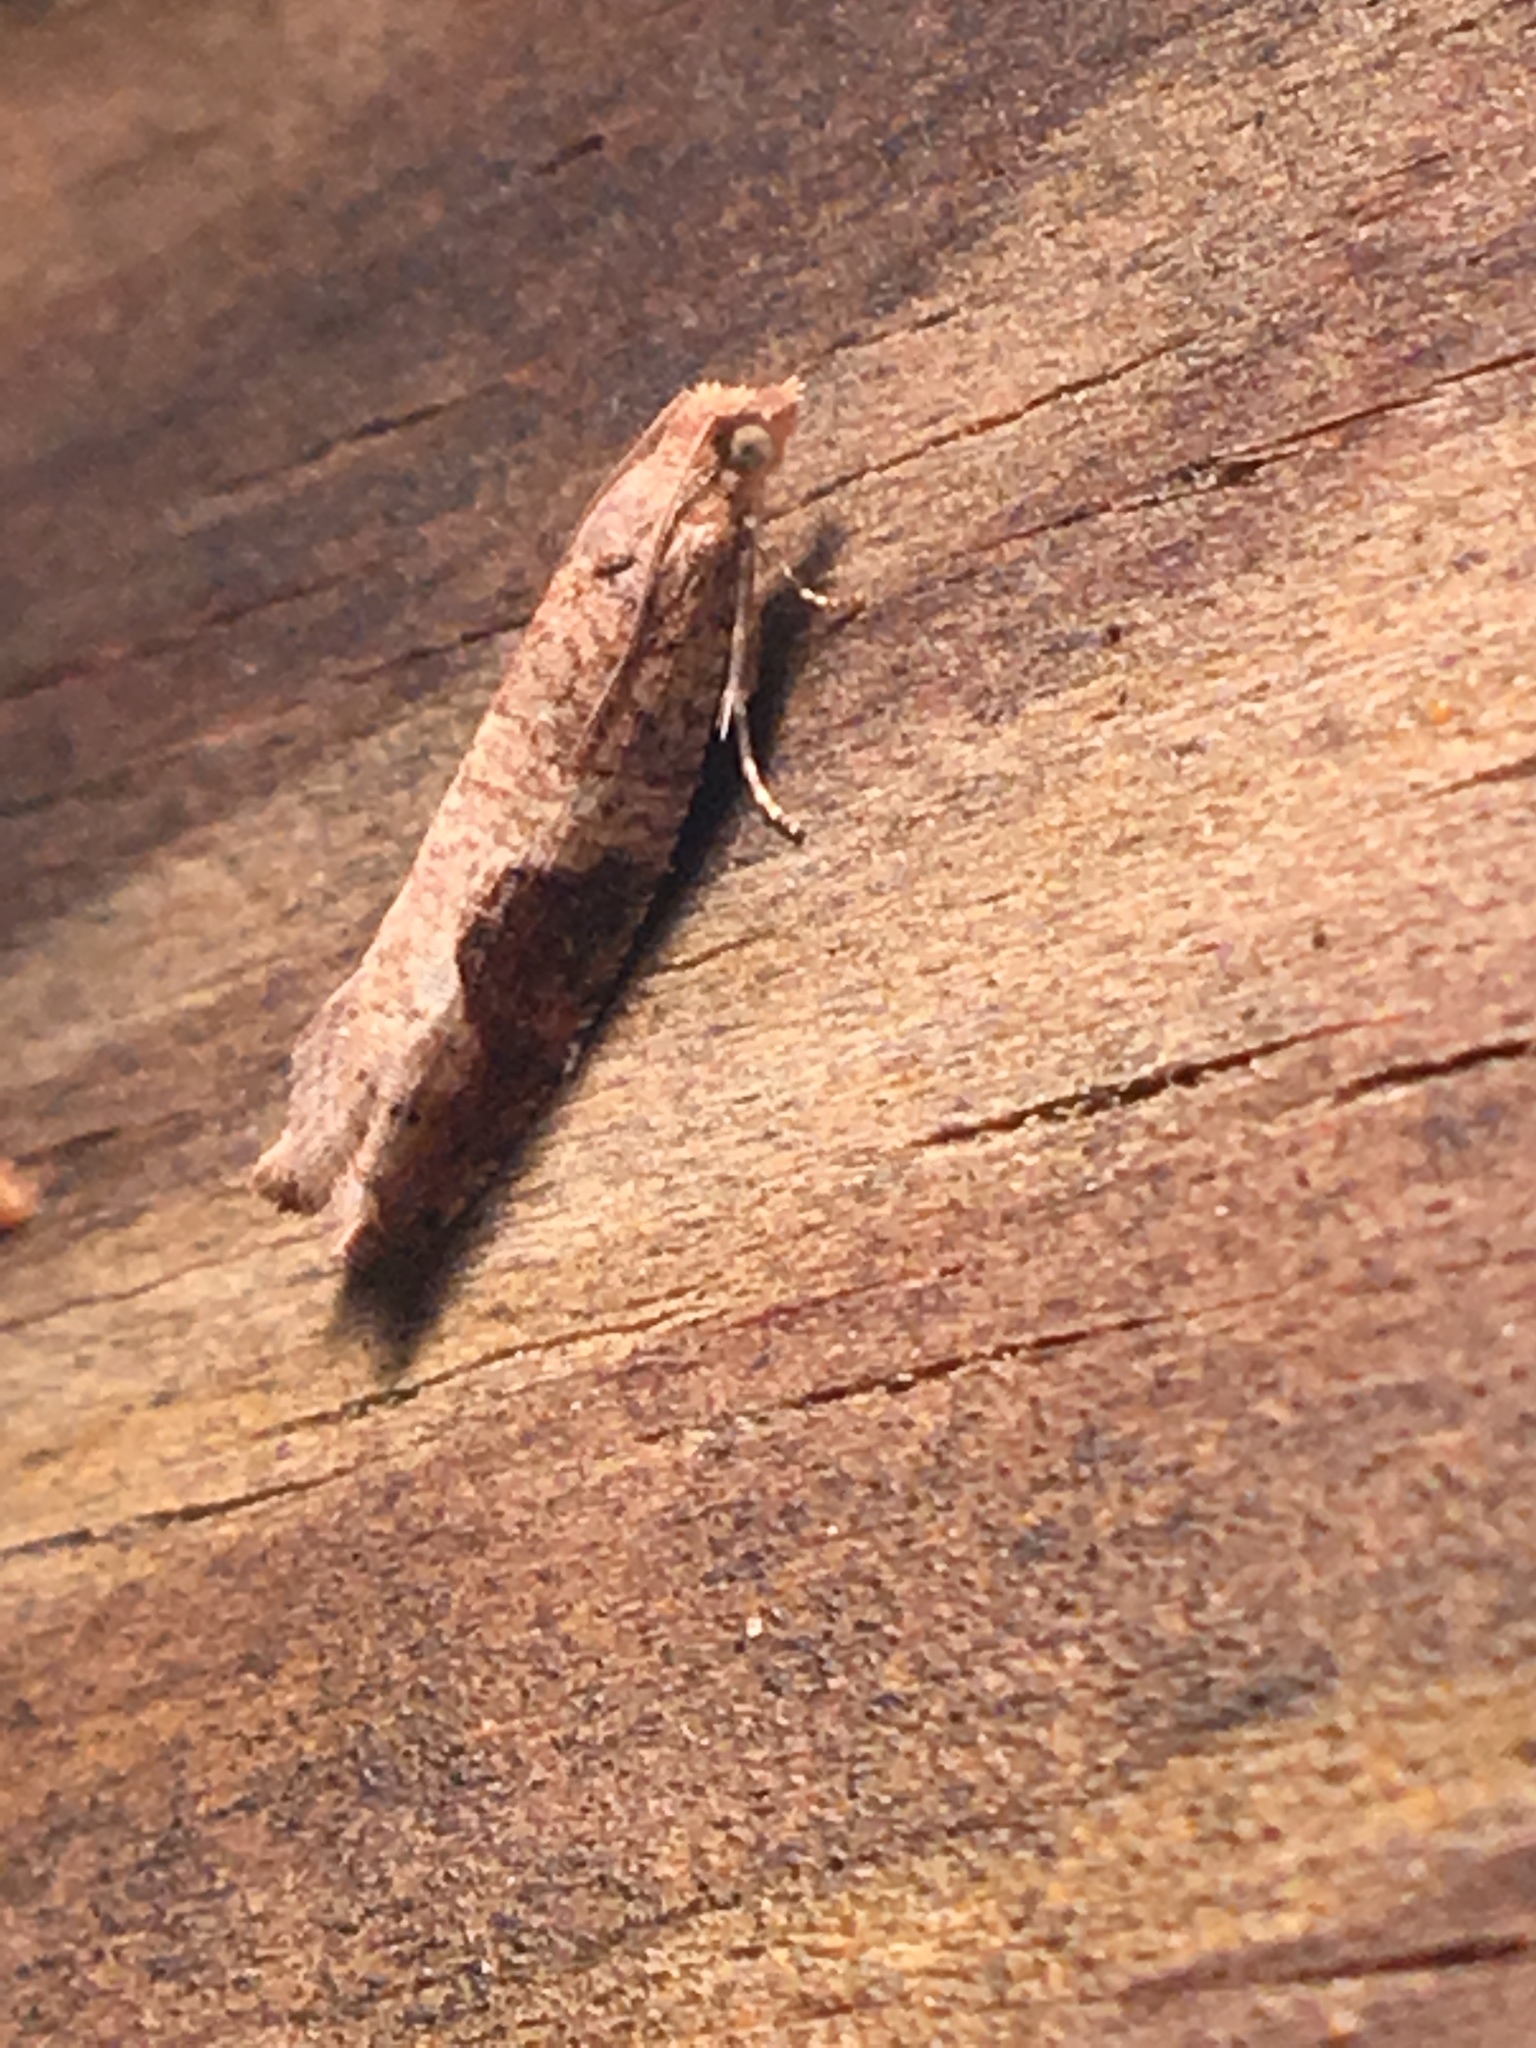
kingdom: Animalia
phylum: Arthropoda
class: Insecta
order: Lepidoptera
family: Tortricidae
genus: Pseudexentera
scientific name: Pseudexentera virginiana
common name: Virginia pseudexentera moth
